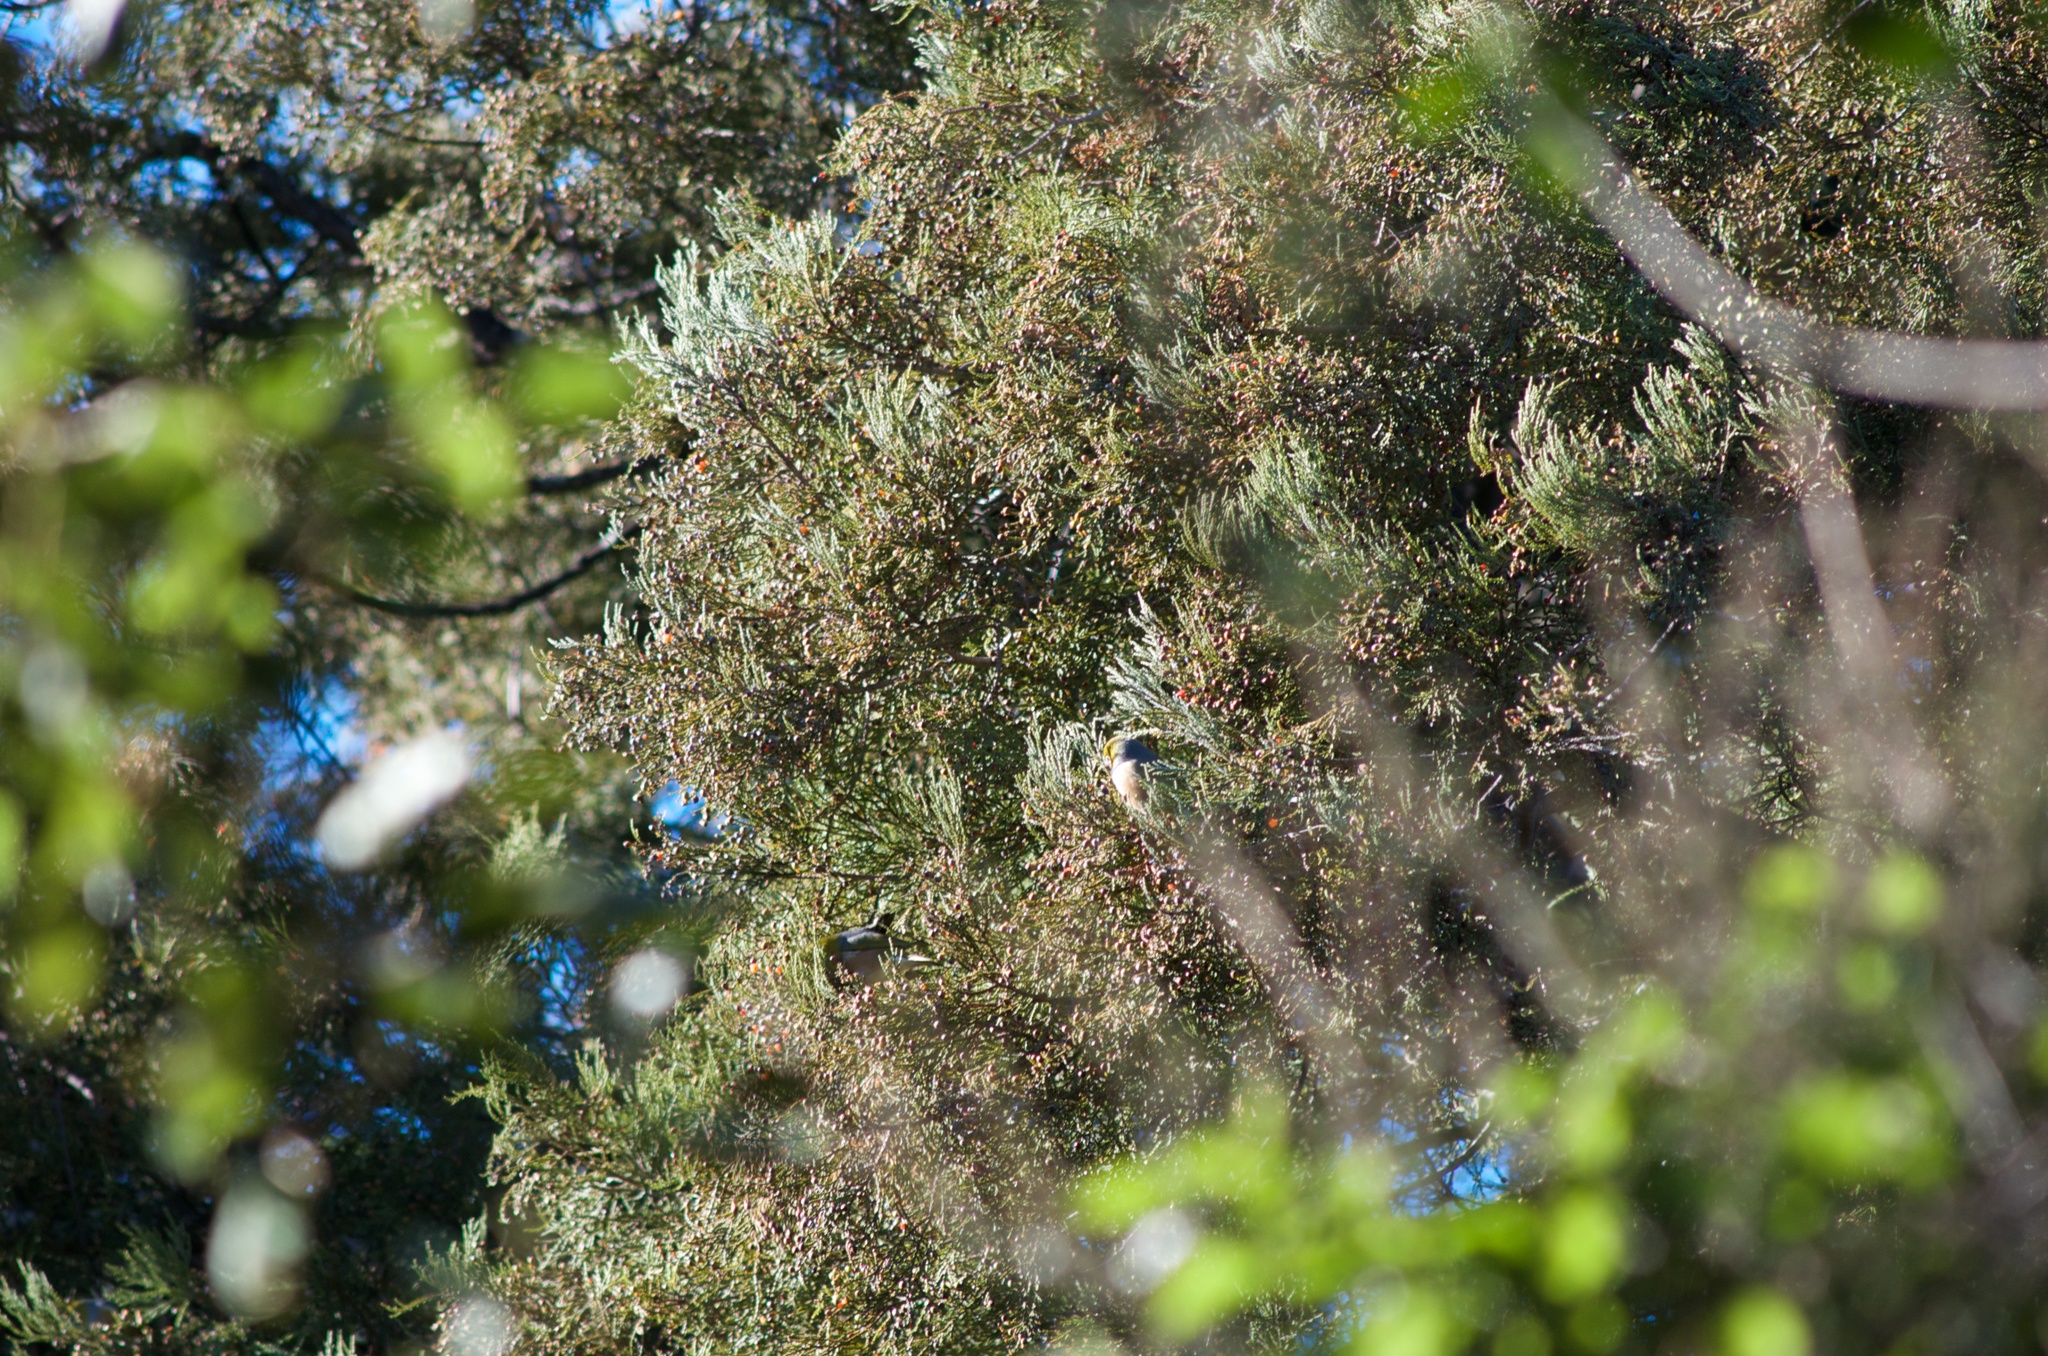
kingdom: Plantae
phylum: Tracheophyta
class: Pinopsida
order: Pinales
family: Podocarpaceae
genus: Dacrycarpus
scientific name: Dacrycarpus dacrydioides
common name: White pine
